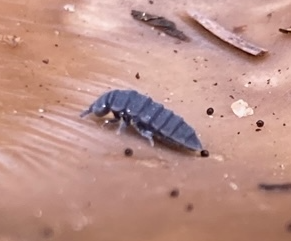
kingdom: Animalia
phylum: Arthropoda
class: Collembola
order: Poduromorpha
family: Onychiuridae
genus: Tetrodontophora
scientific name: Tetrodontophora bielanensis
